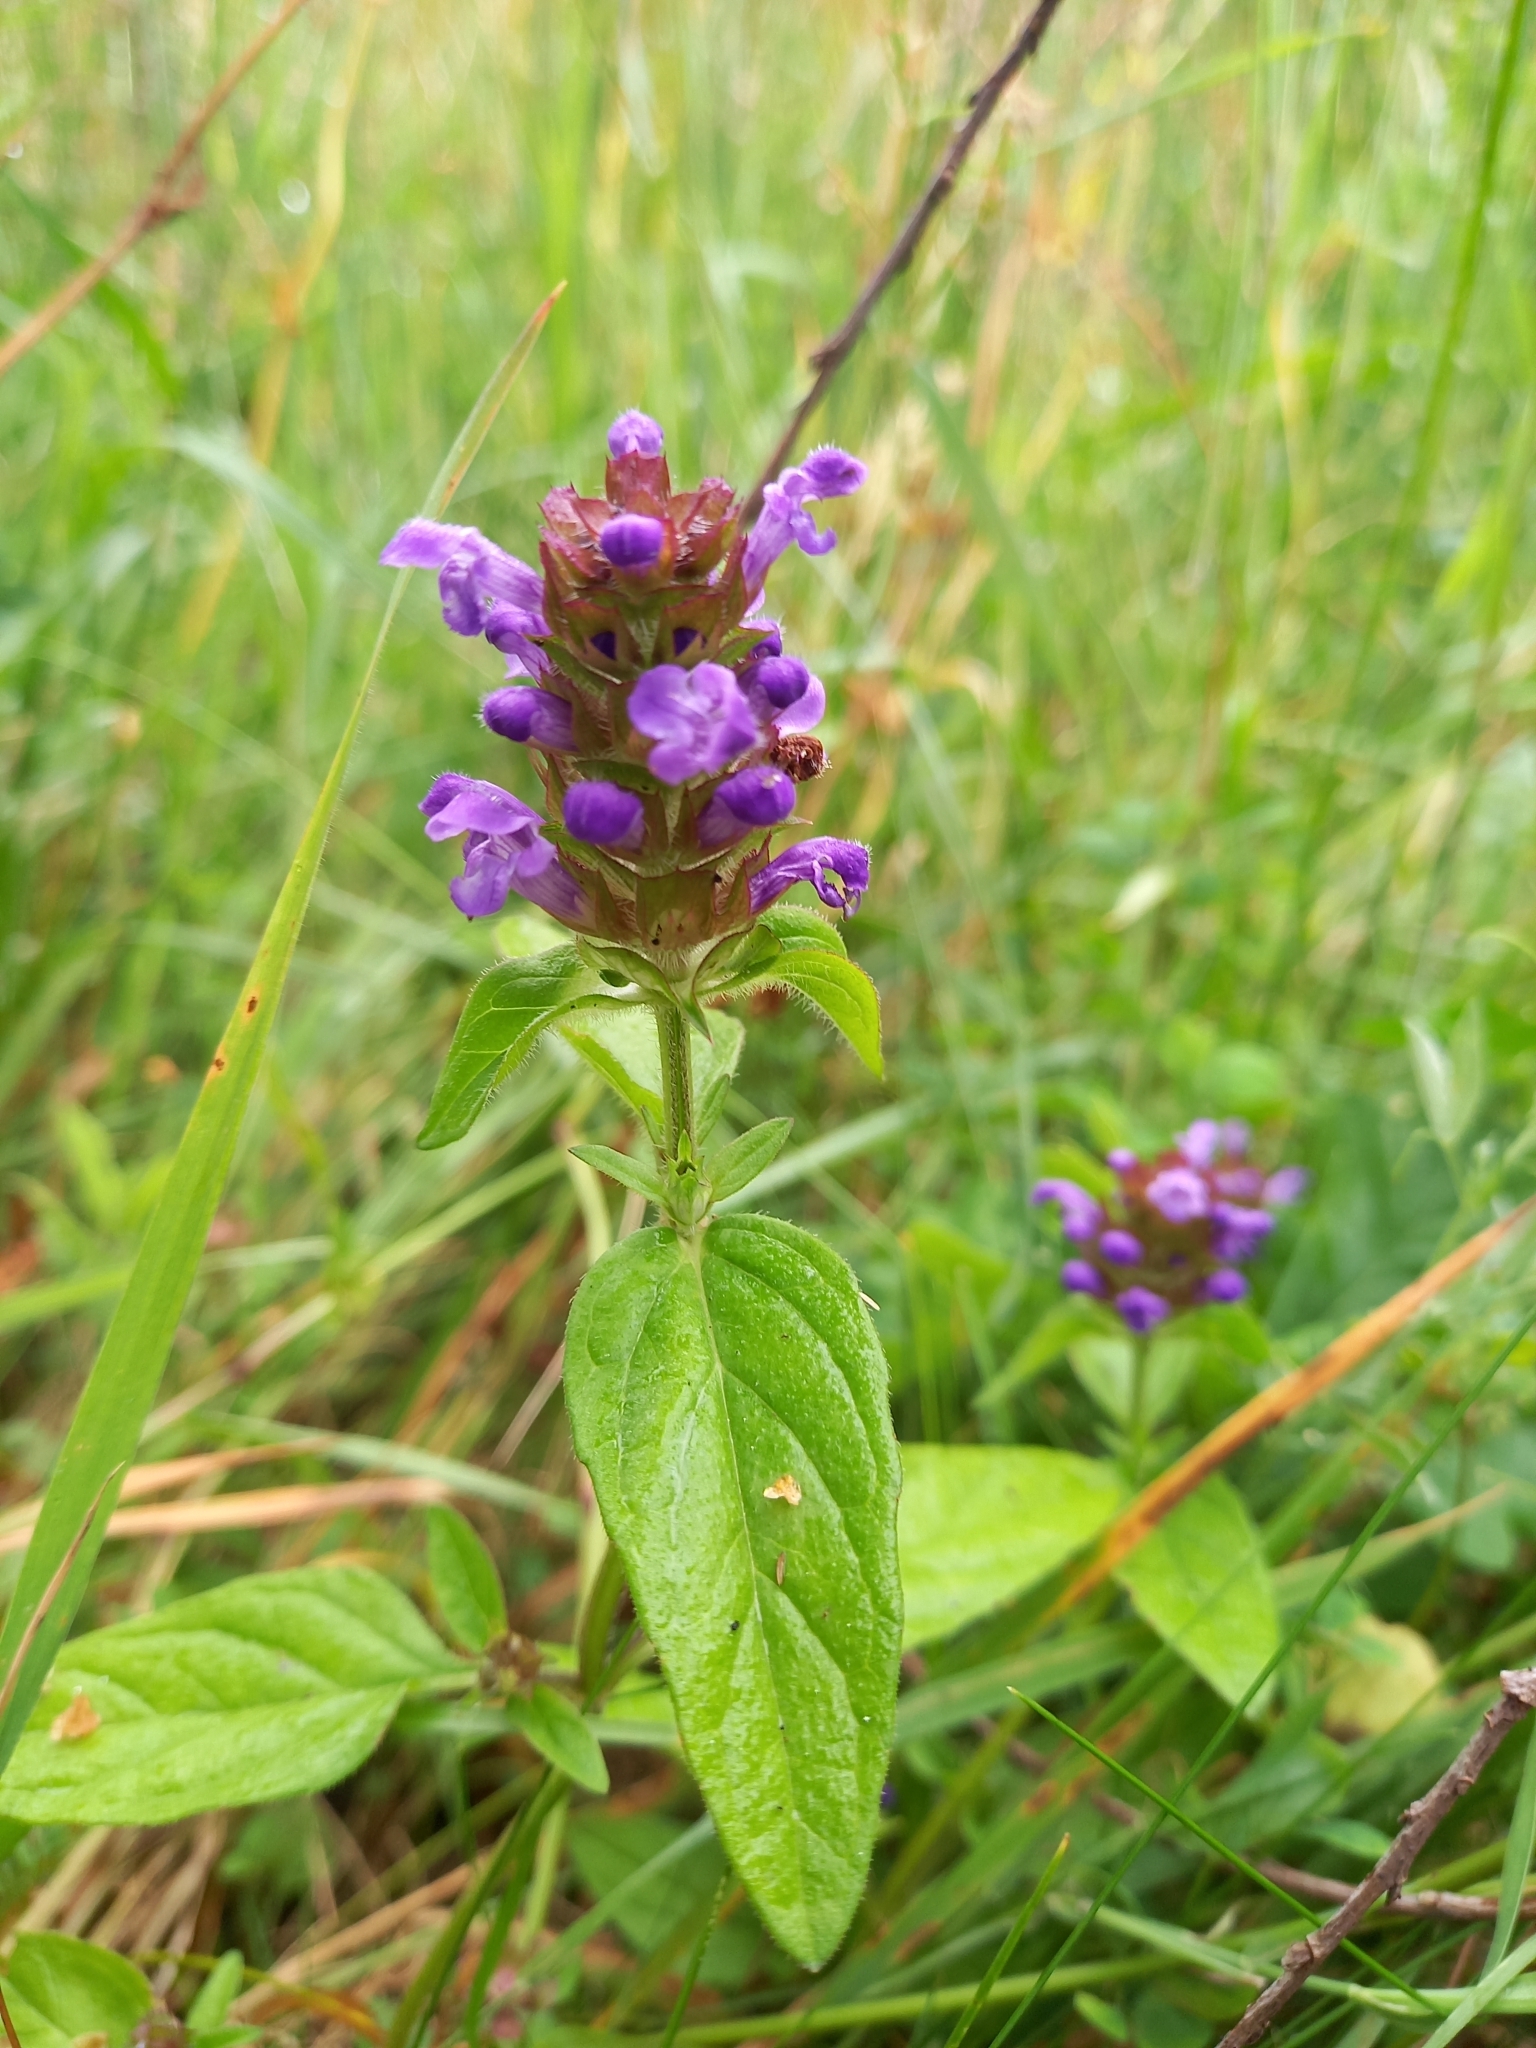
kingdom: Plantae
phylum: Tracheophyta
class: Magnoliopsida
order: Lamiales
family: Lamiaceae
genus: Prunella
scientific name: Prunella vulgaris
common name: Heal-all
